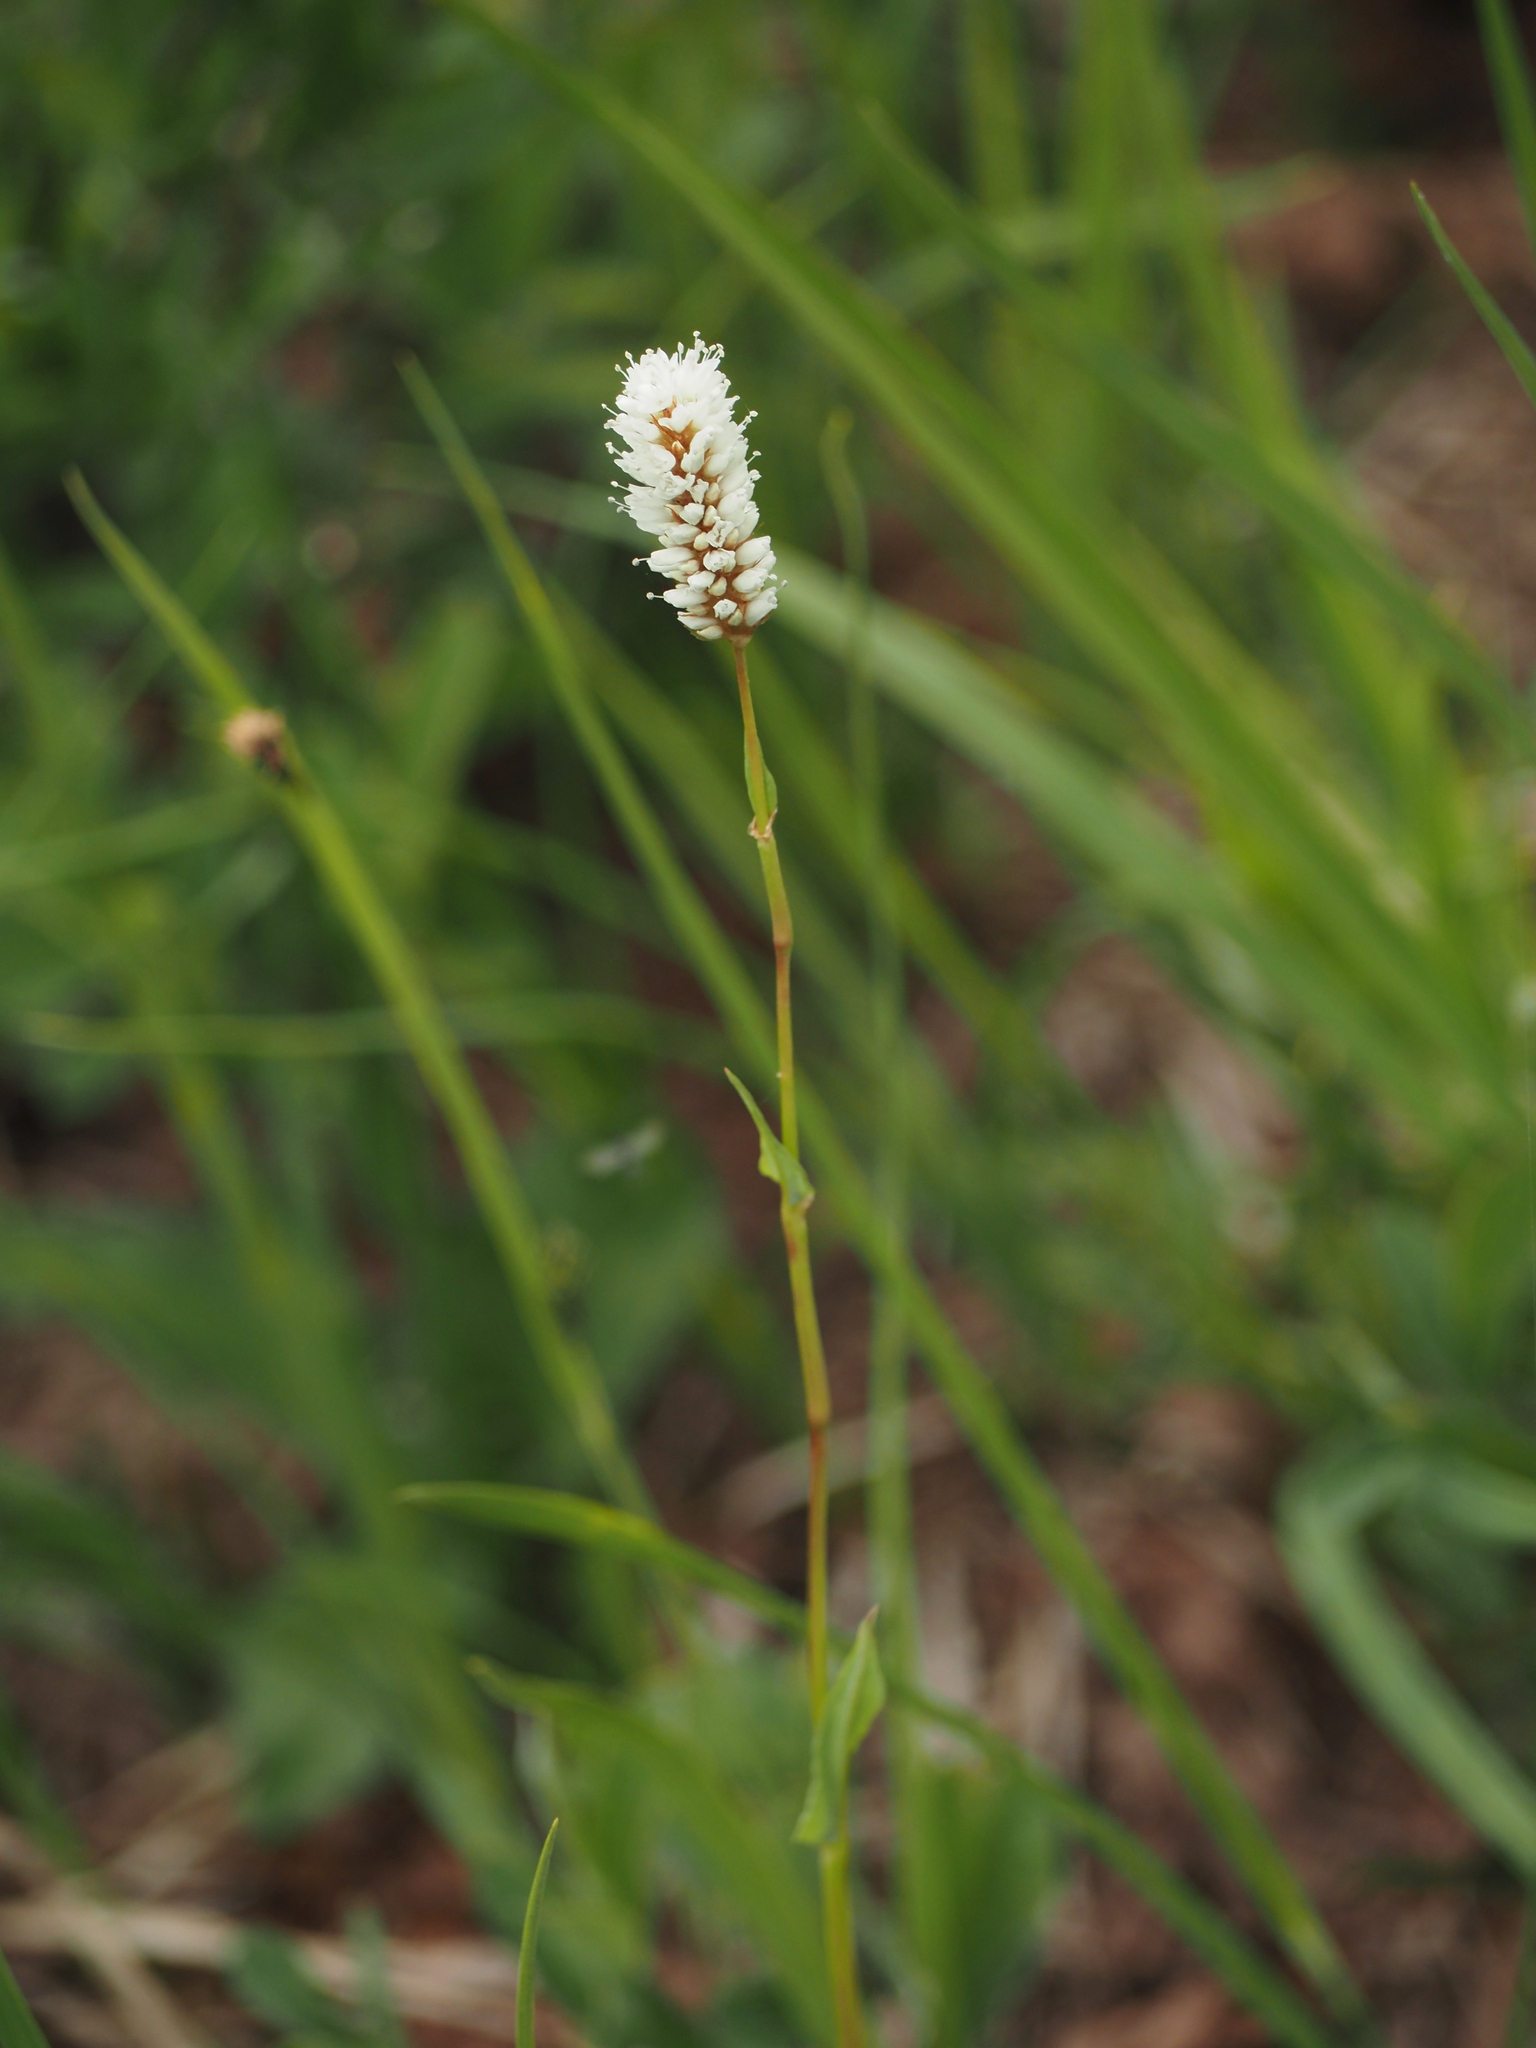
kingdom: Plantae
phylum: Tracheophyta
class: Magnoliopsida
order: Caryophyllales
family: Polygonaceae
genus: Bistorta
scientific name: Bistorta bistortoides
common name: American bistort
